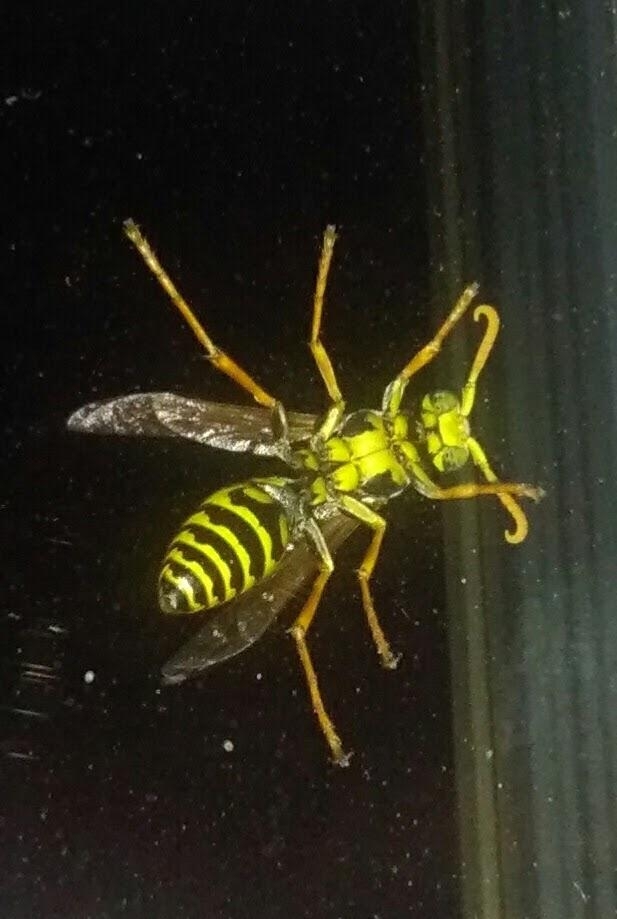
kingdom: Animalia
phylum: Arthropoda
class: Insecta
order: Hymenoptera
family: Eumenidae
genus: Polistes
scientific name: Polistes dominula
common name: Paper wasp
